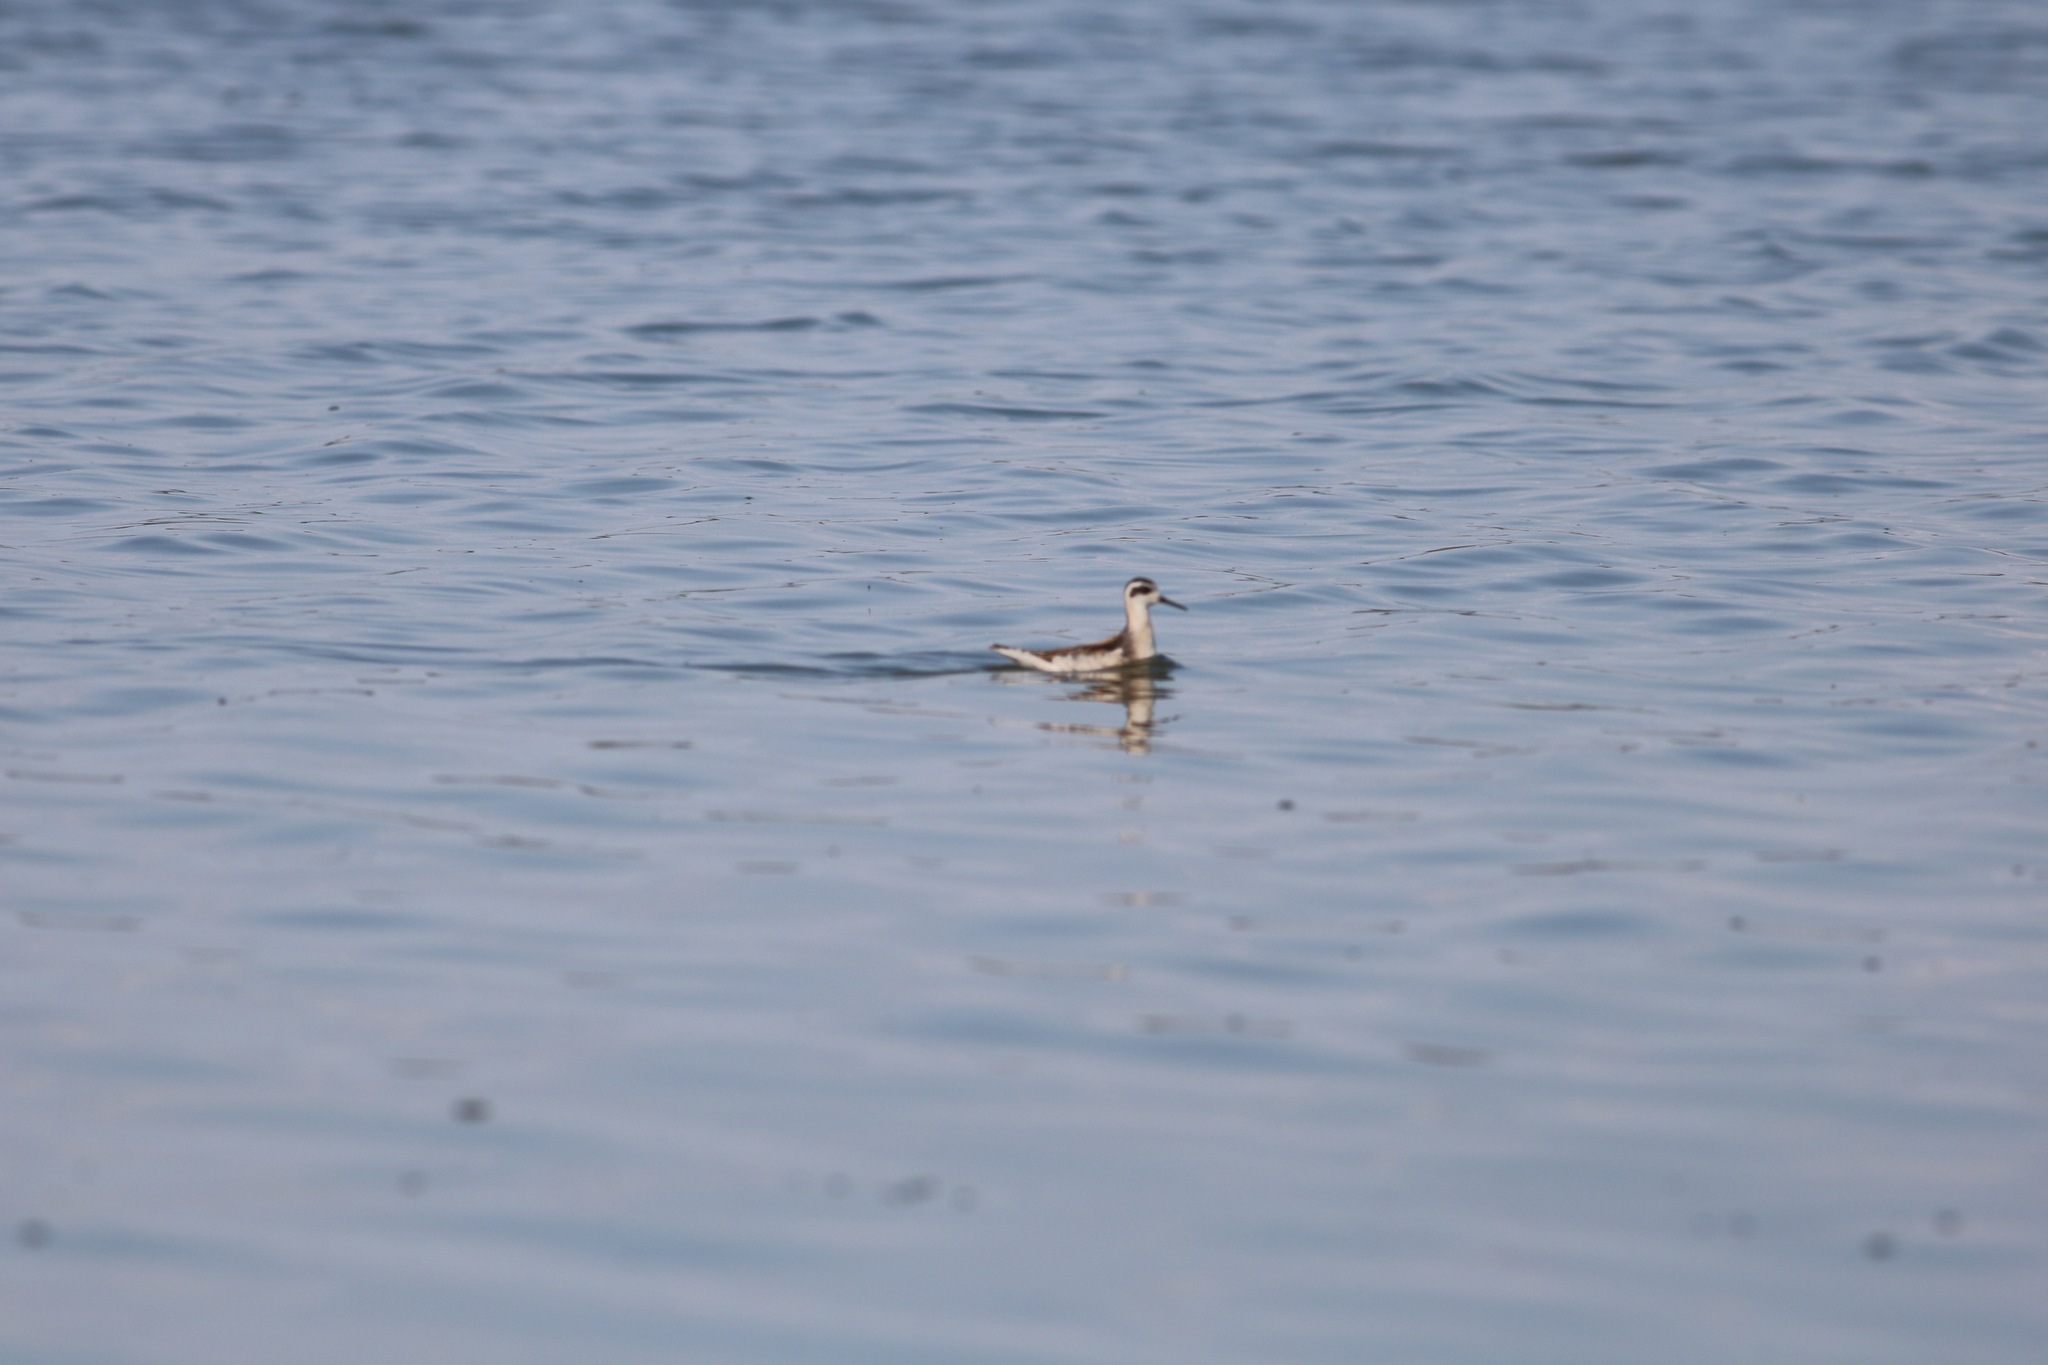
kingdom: Animalia
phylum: Chordata
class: Aves
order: Charadriiformes
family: Scolopacidae
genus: Phalaropus
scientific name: Phalaropus lobatus
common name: Red-necked phalarope
